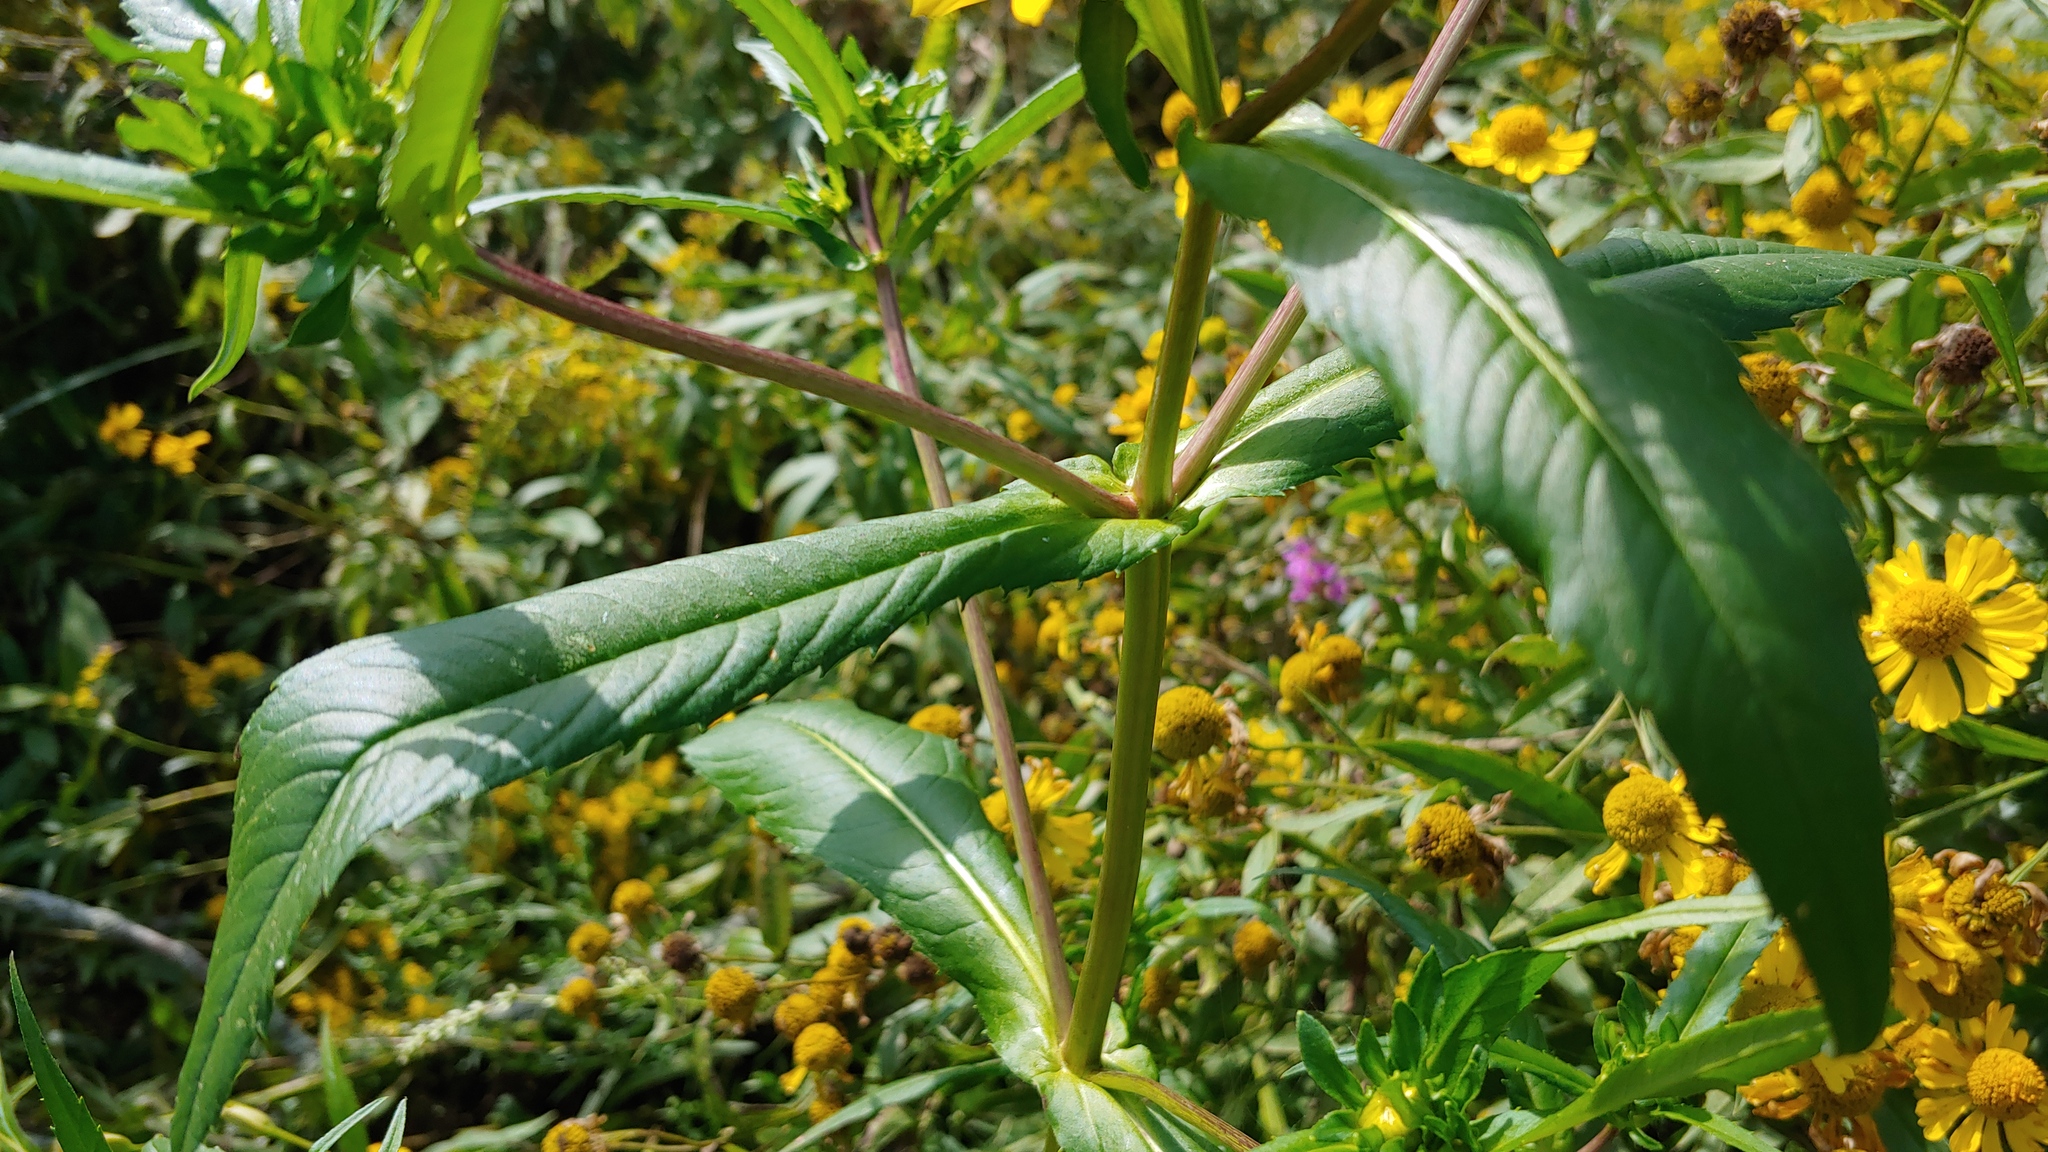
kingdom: Plantae
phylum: Tracheophyta
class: Magnoliopsida
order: Asterales
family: Asteraceae
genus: Bidens
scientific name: Bidens cernua
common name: Nodding bur-marigold
